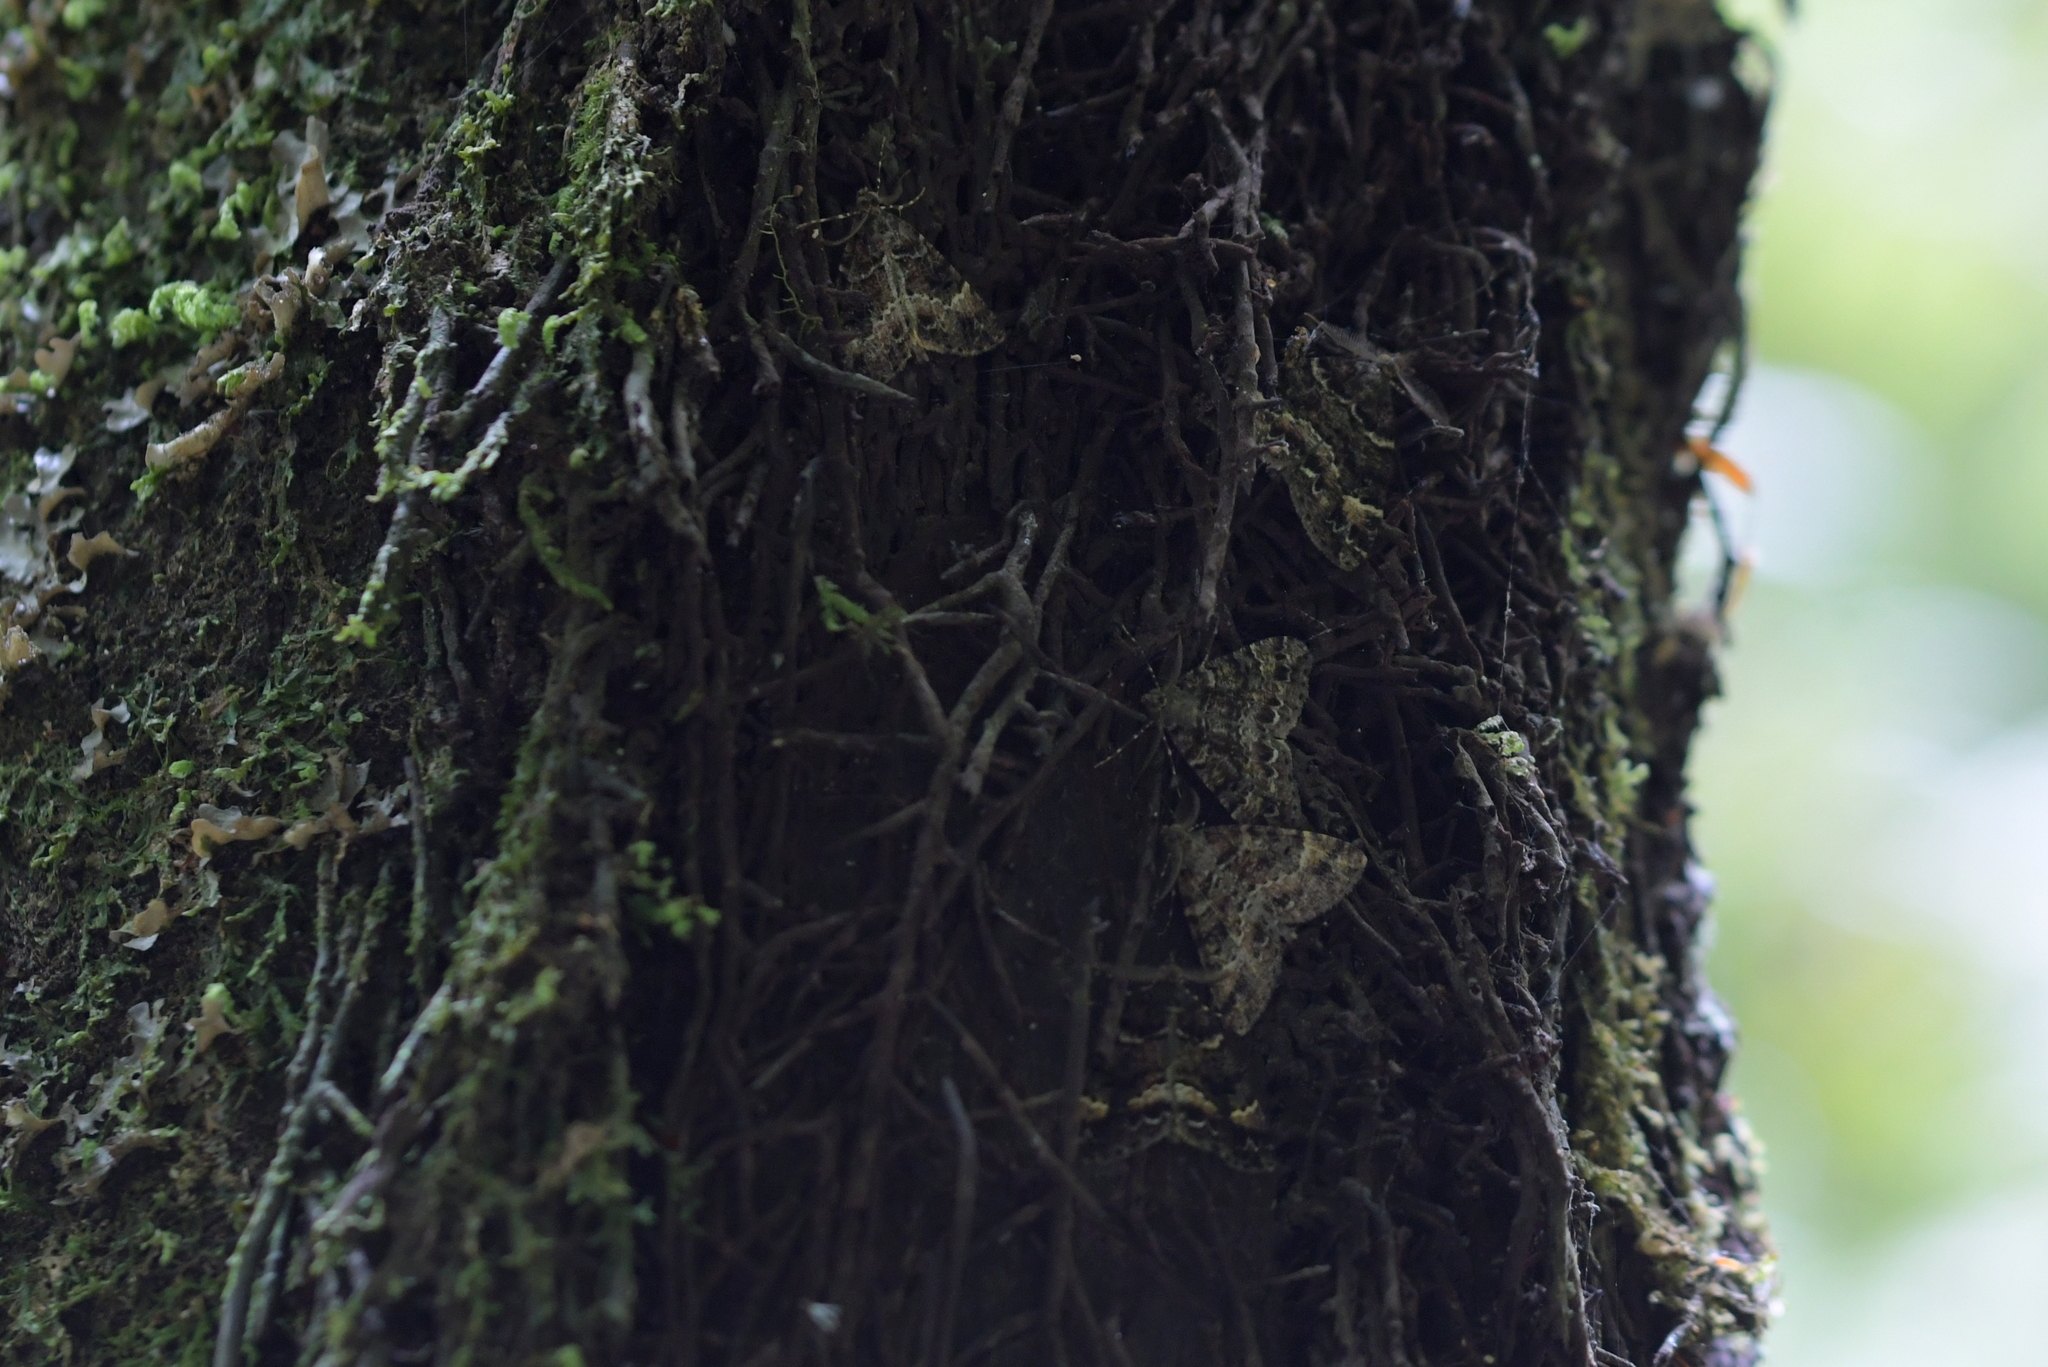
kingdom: Animalia
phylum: Arthropoda
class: Insecta
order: Lepidoptera
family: Geometridae
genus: Pseudocoremia
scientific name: Pseudocoremia productata
